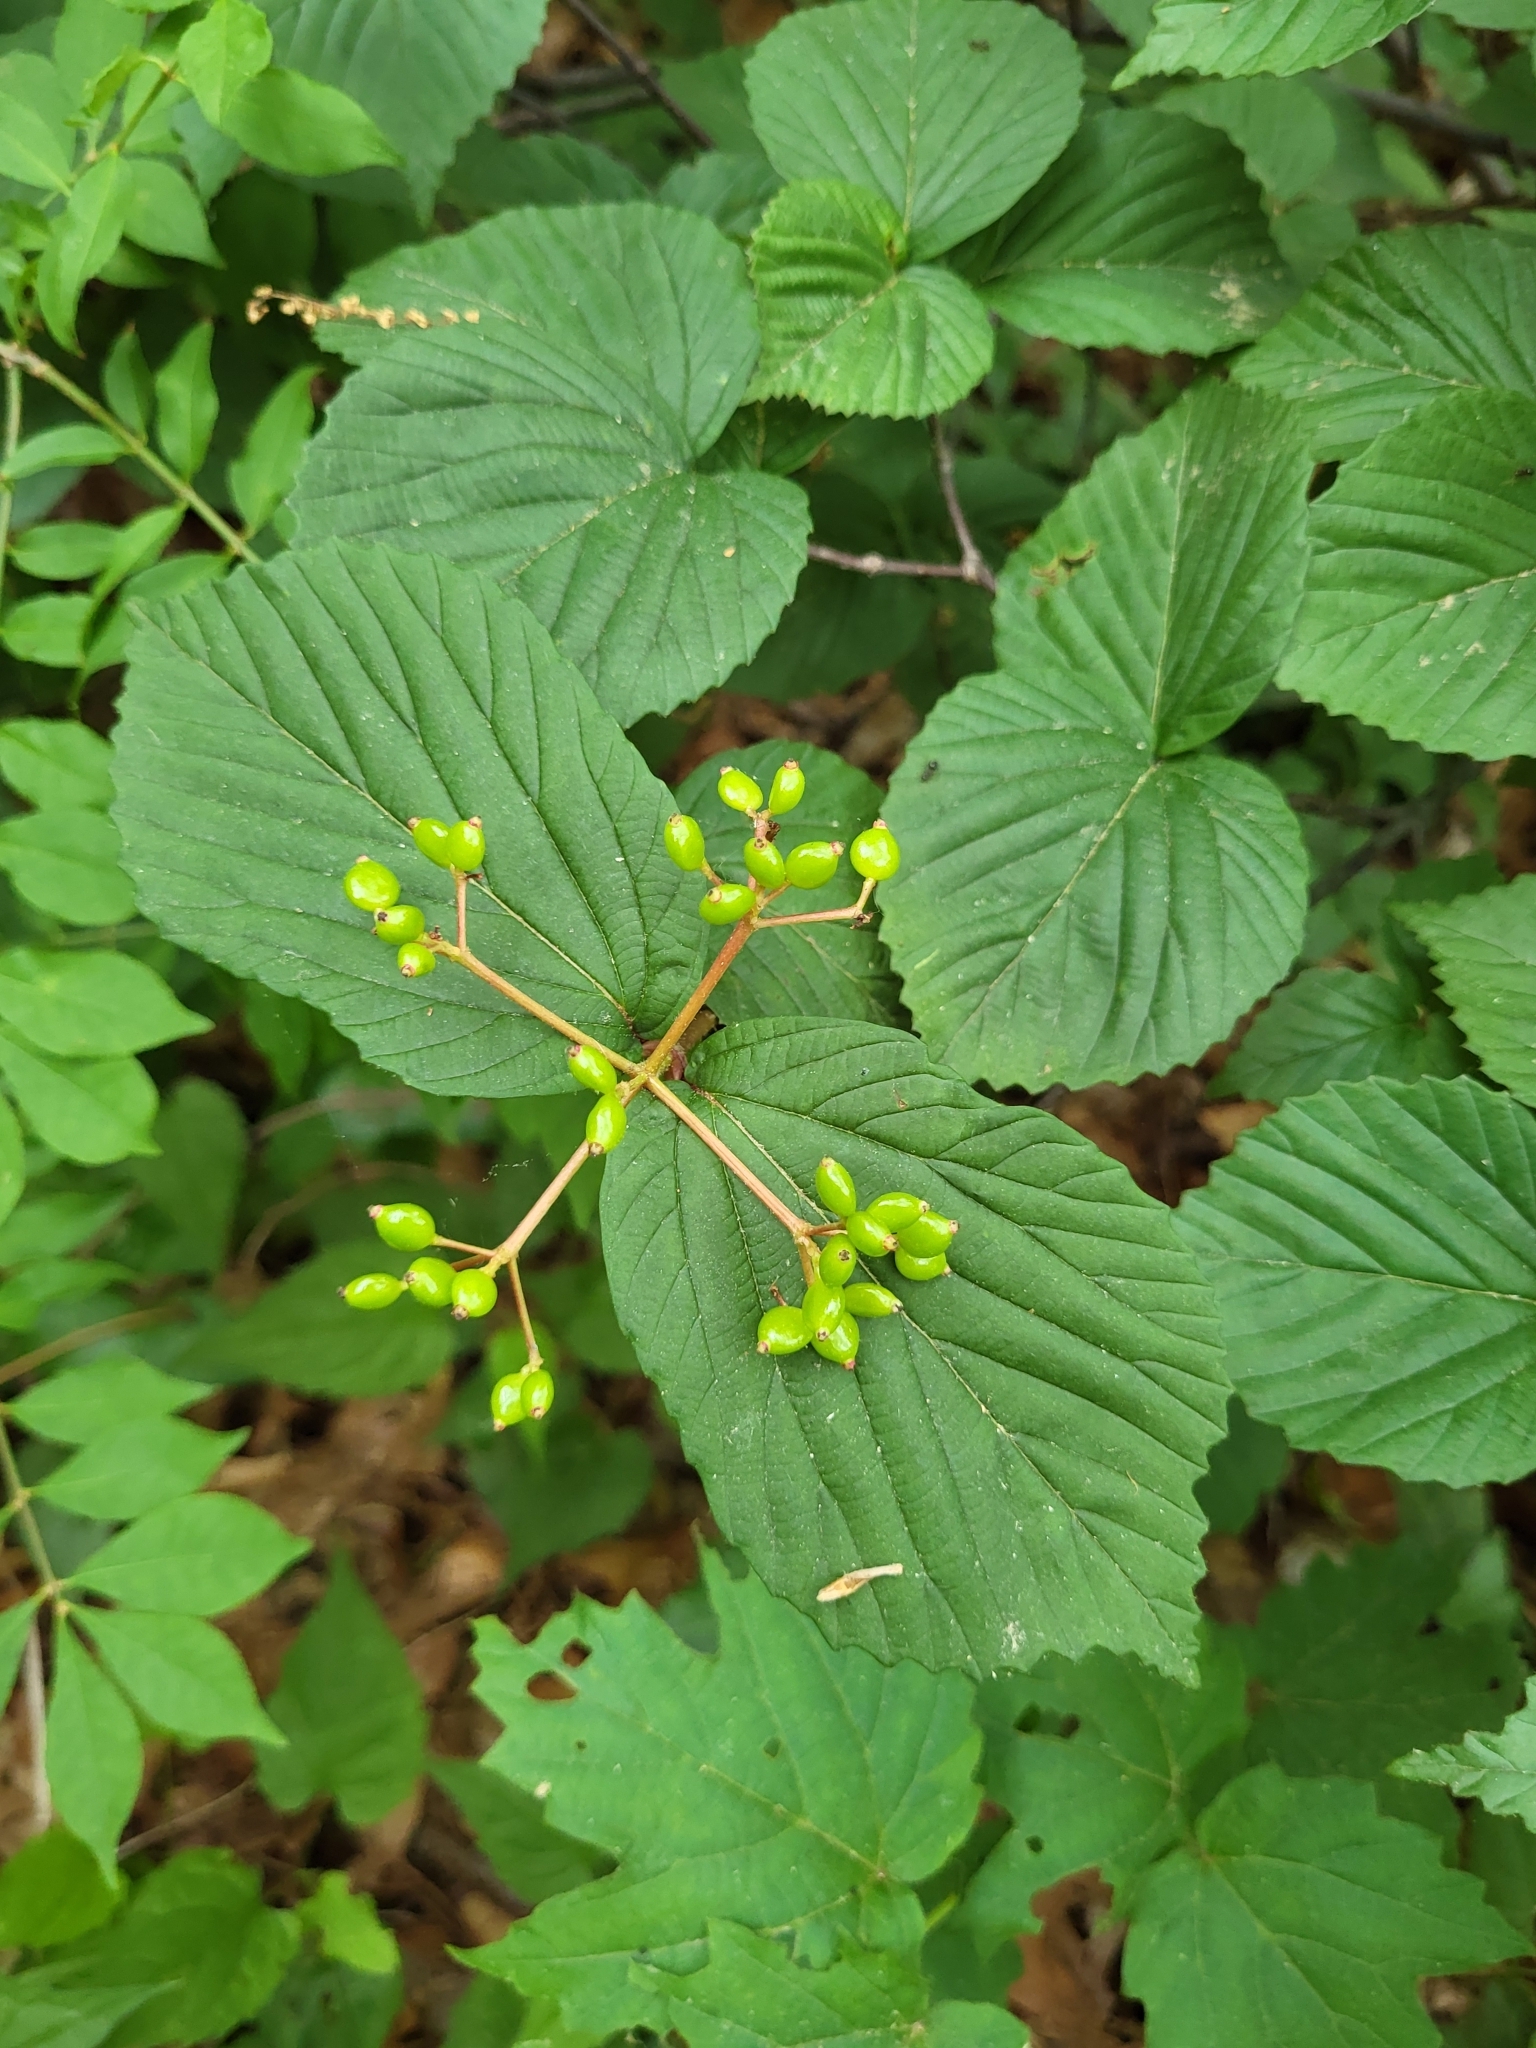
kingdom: Plantae
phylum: Tracheophyta
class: Magnoliopsida
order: Dipsacales
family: Viburnaceae
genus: Viburnum
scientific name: Viburnum wrightii
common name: Wright's viburnum
